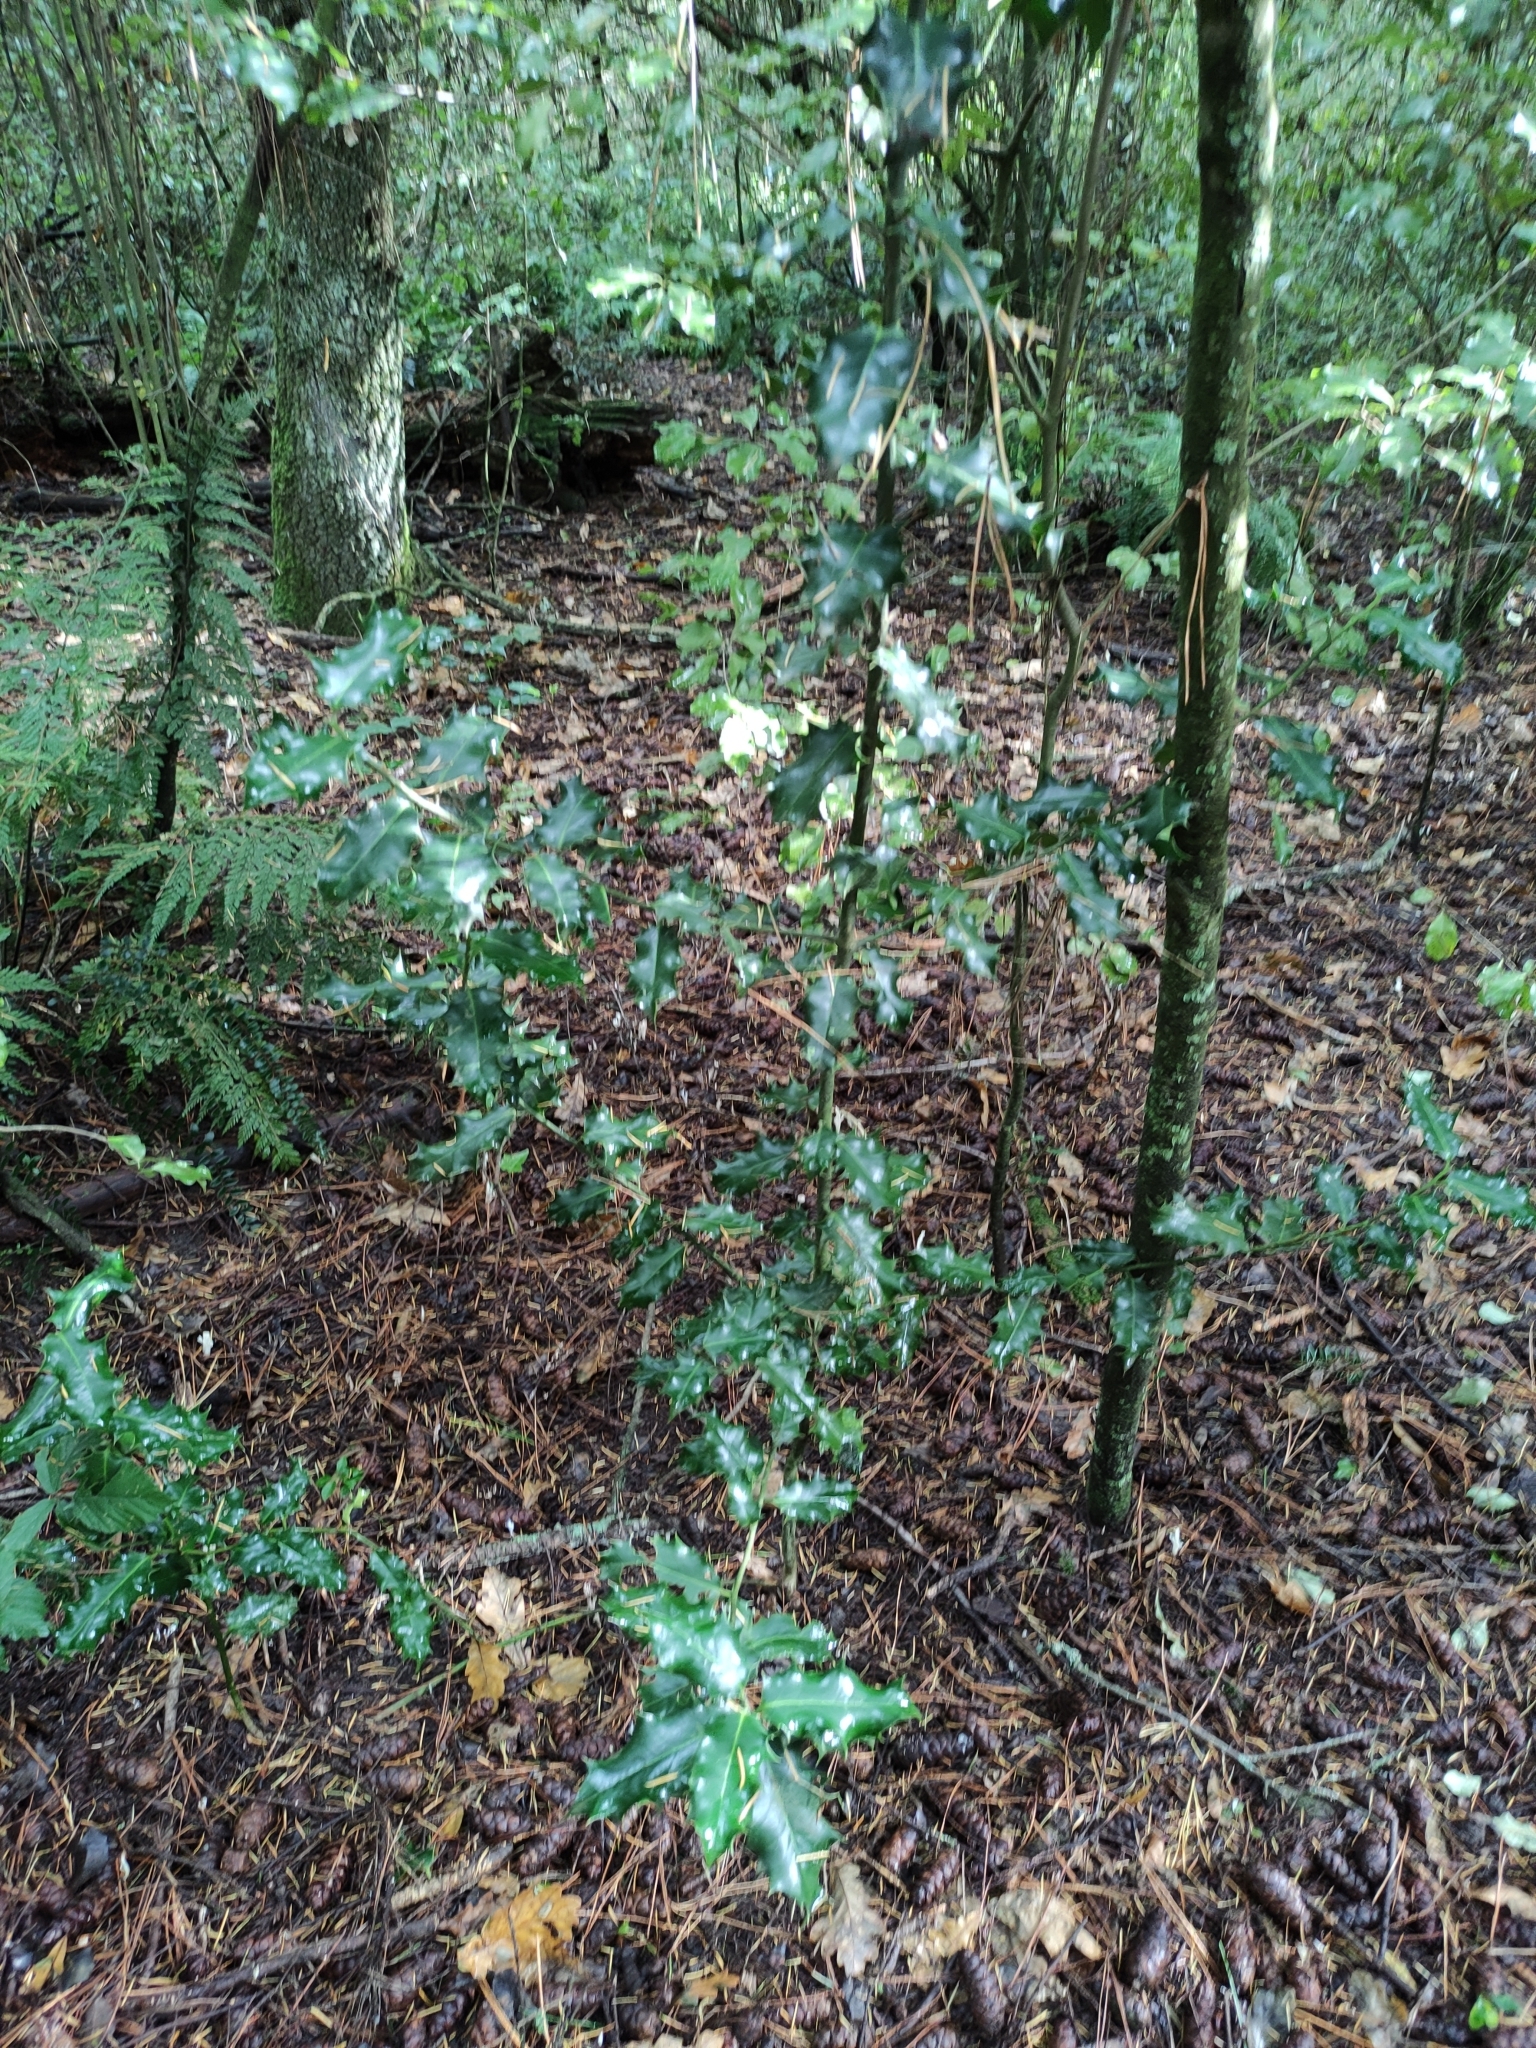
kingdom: Plantae
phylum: Tracheophyta
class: Magnoliopsida
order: Aquifoliales
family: Aquifoliaceae
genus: Ilex
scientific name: Ilex aquifolium
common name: English holly
